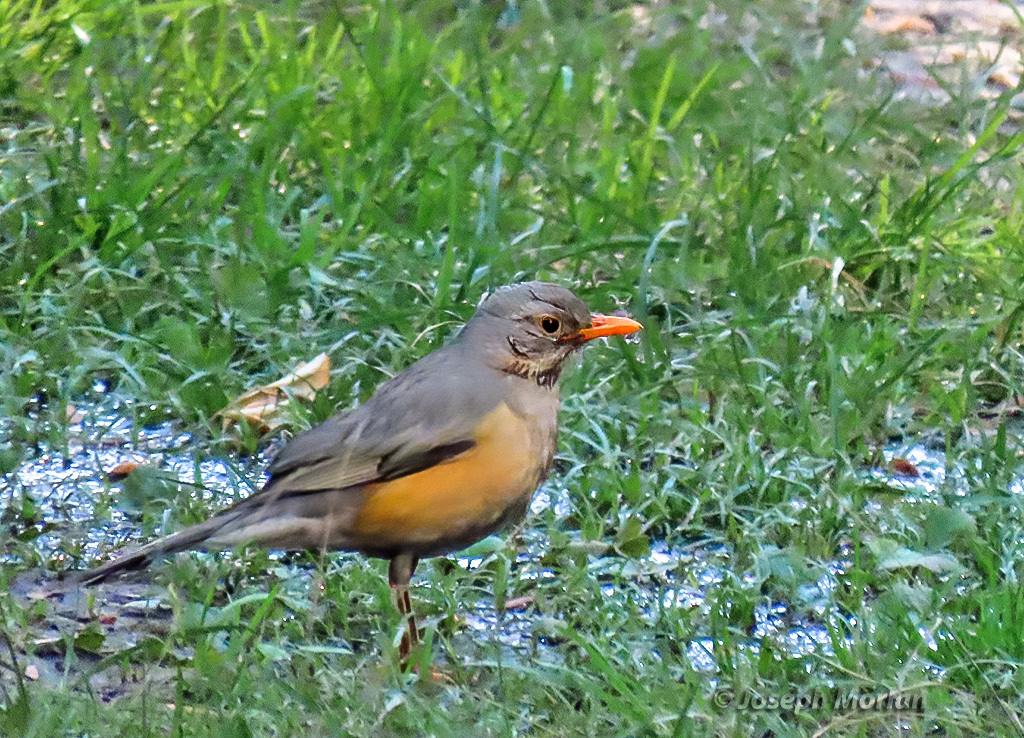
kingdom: Animalia
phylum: Chordata
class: Aves
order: Passeriformes
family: Turdidae
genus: Turdus
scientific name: Turdus libonyana
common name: Kurrichane thrush
